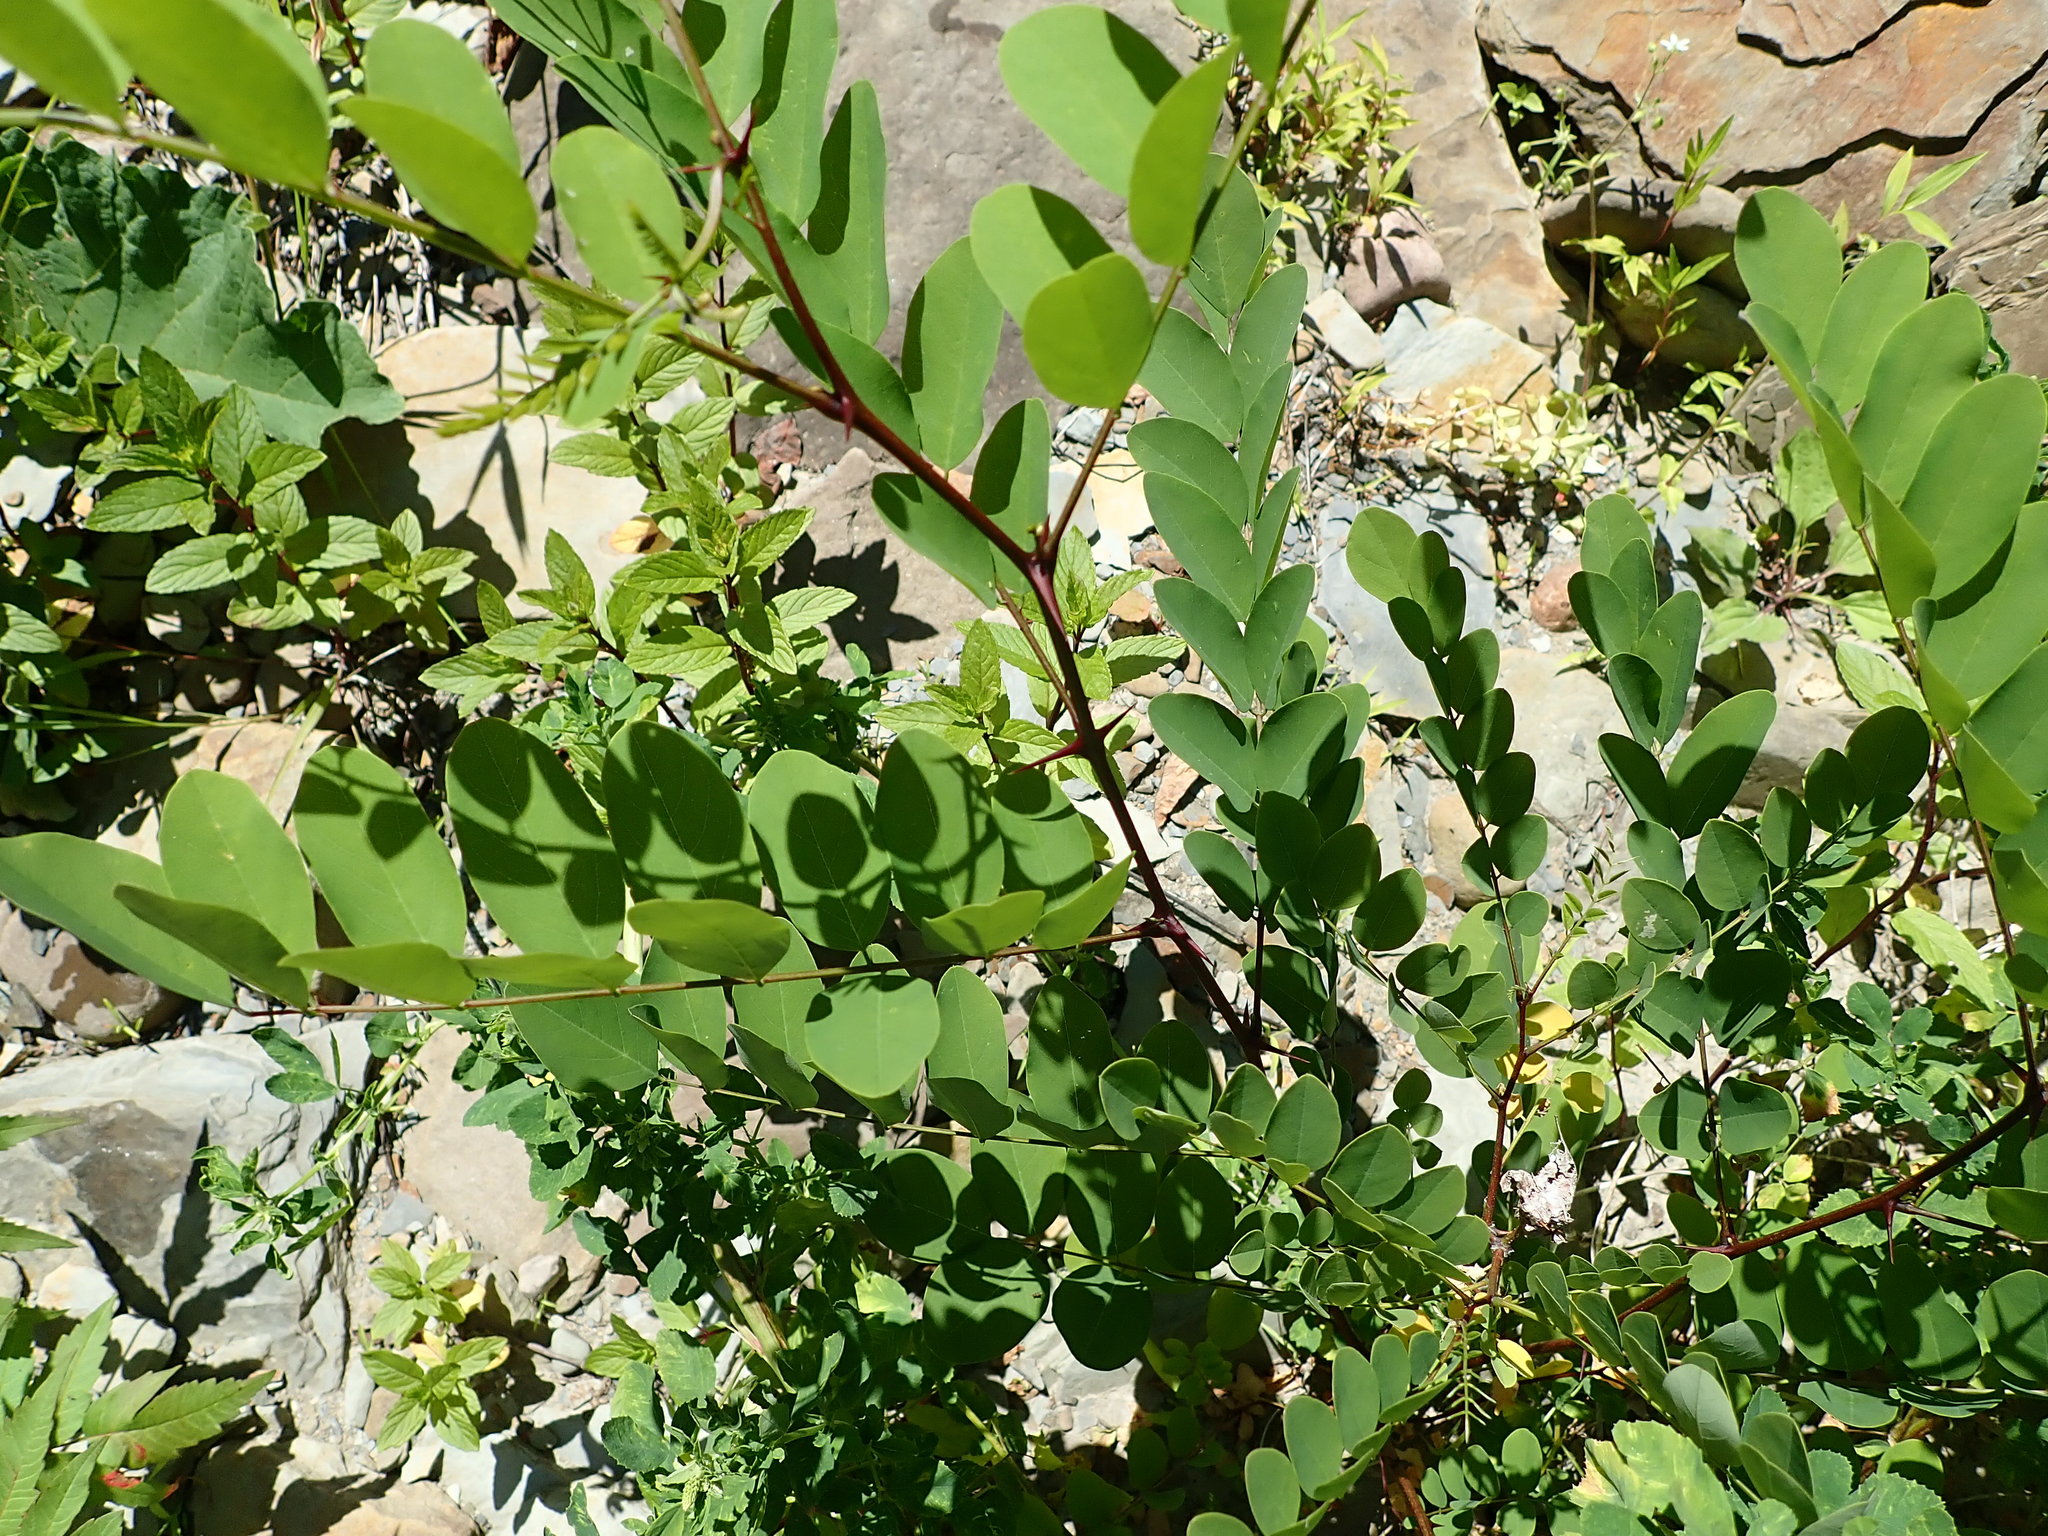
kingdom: Plantae
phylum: Tracheophyta
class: Magnoliopsida
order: Fabales
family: Fabaceae
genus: Robinia
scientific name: Robinia pseudoacacia
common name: Black locust
